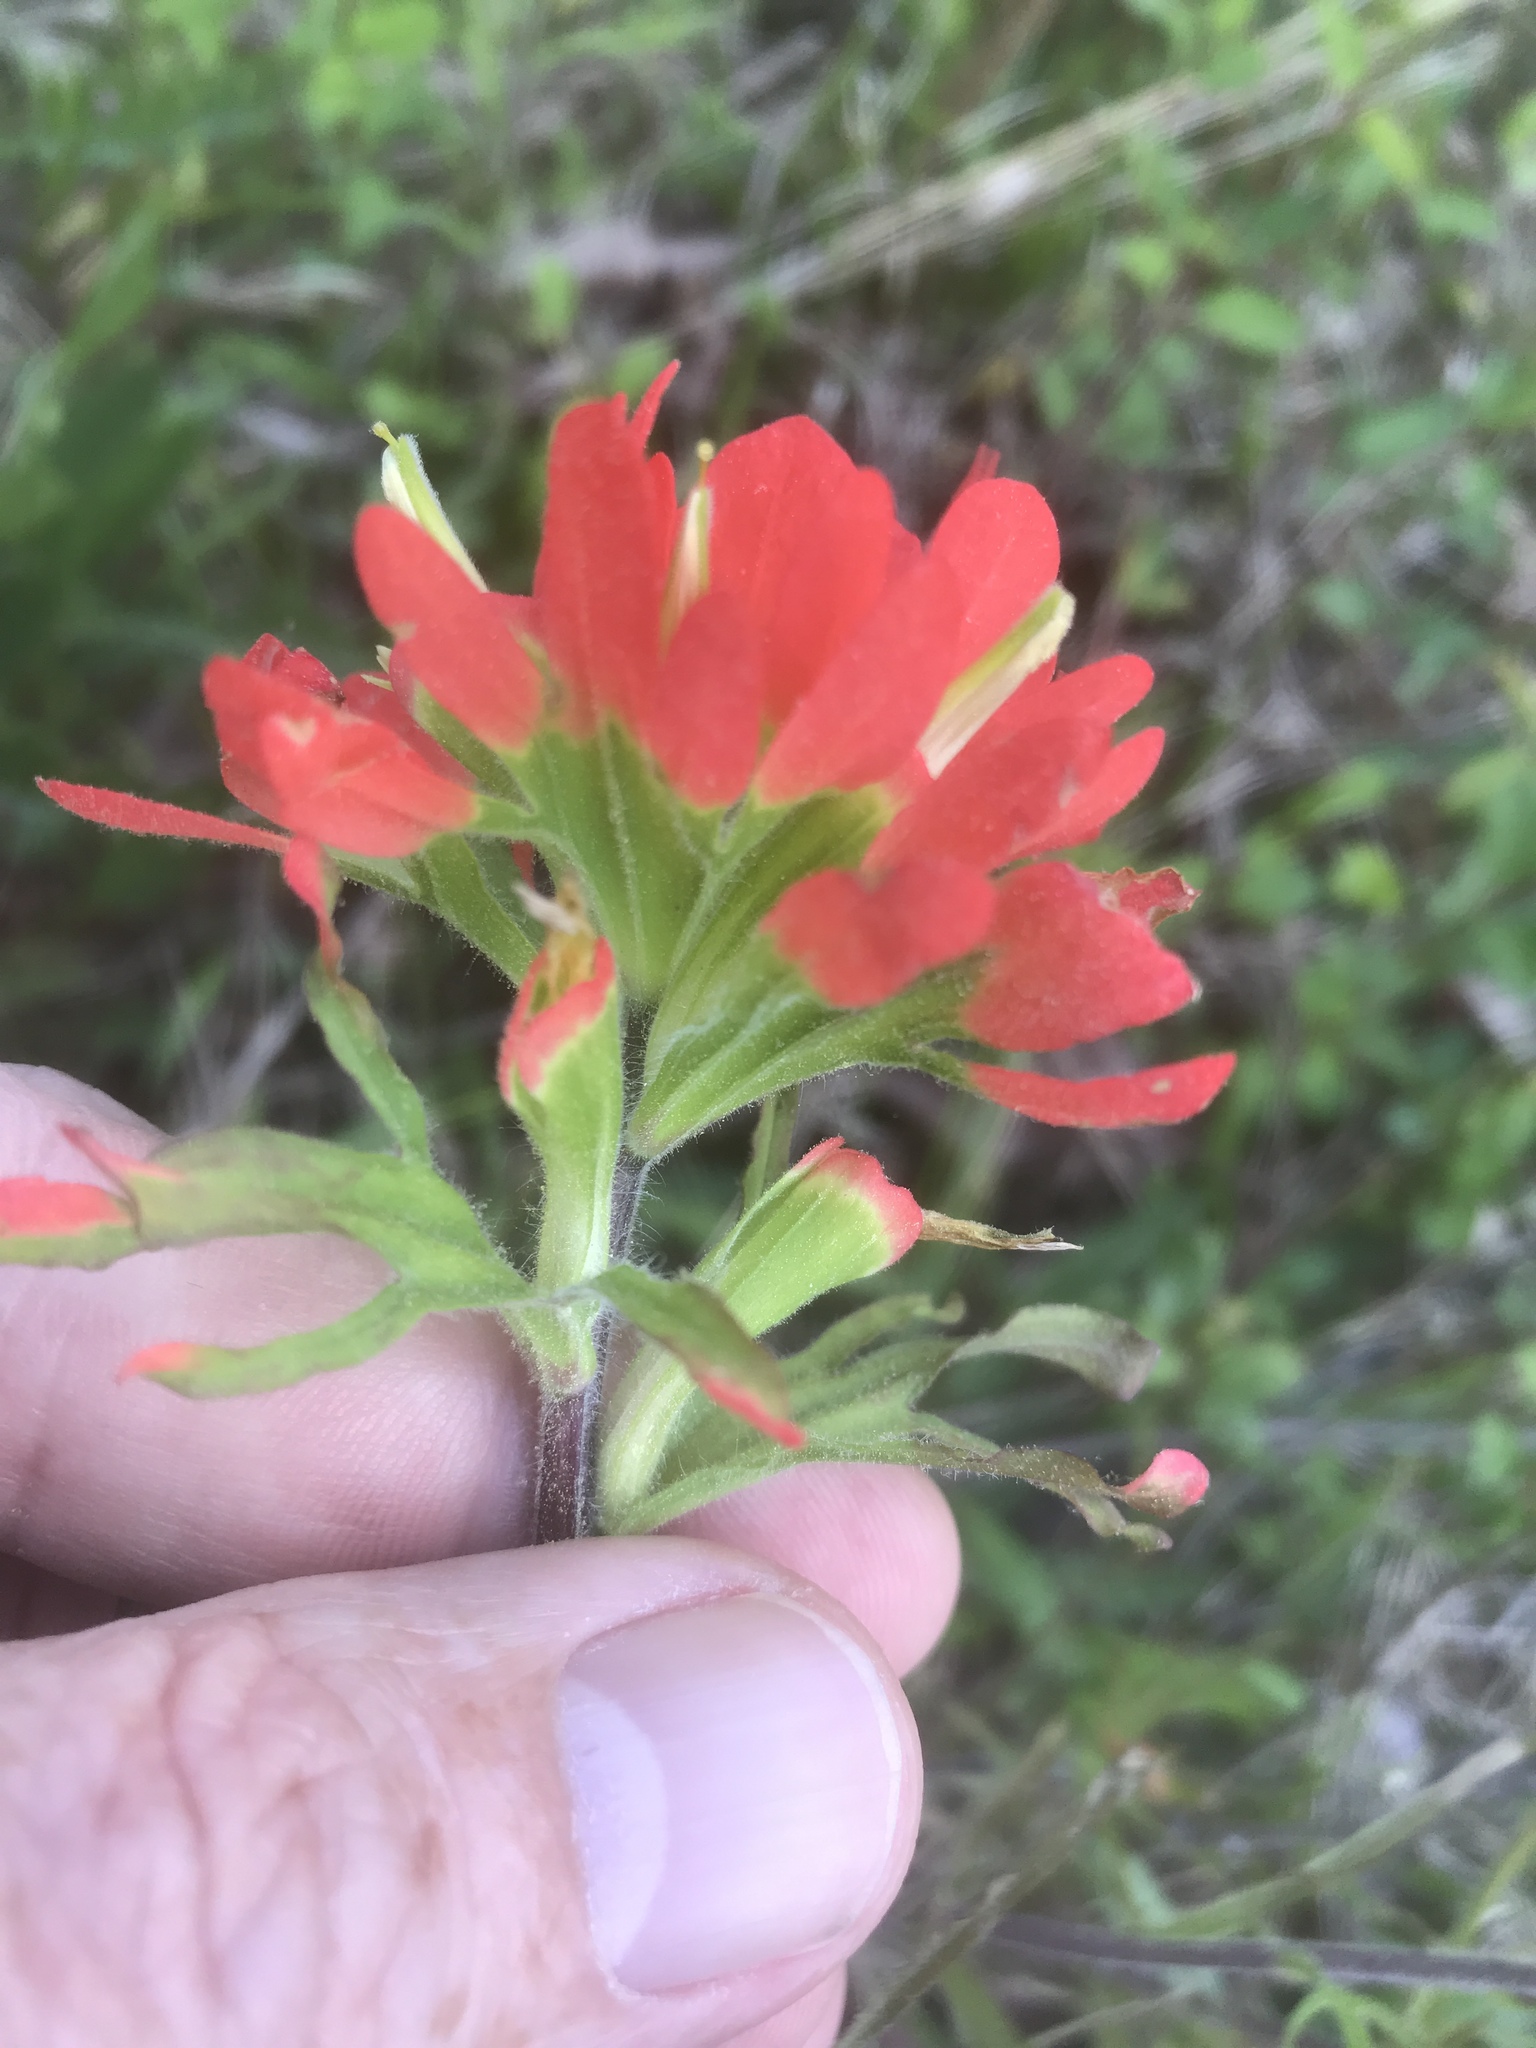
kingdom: Plantae
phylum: Tracheophyta
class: Magnoliopsida
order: Lamiales
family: Orobanchaceae
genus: Castilleja
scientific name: Castilleja coccinea
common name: Scarlet paintbrush
